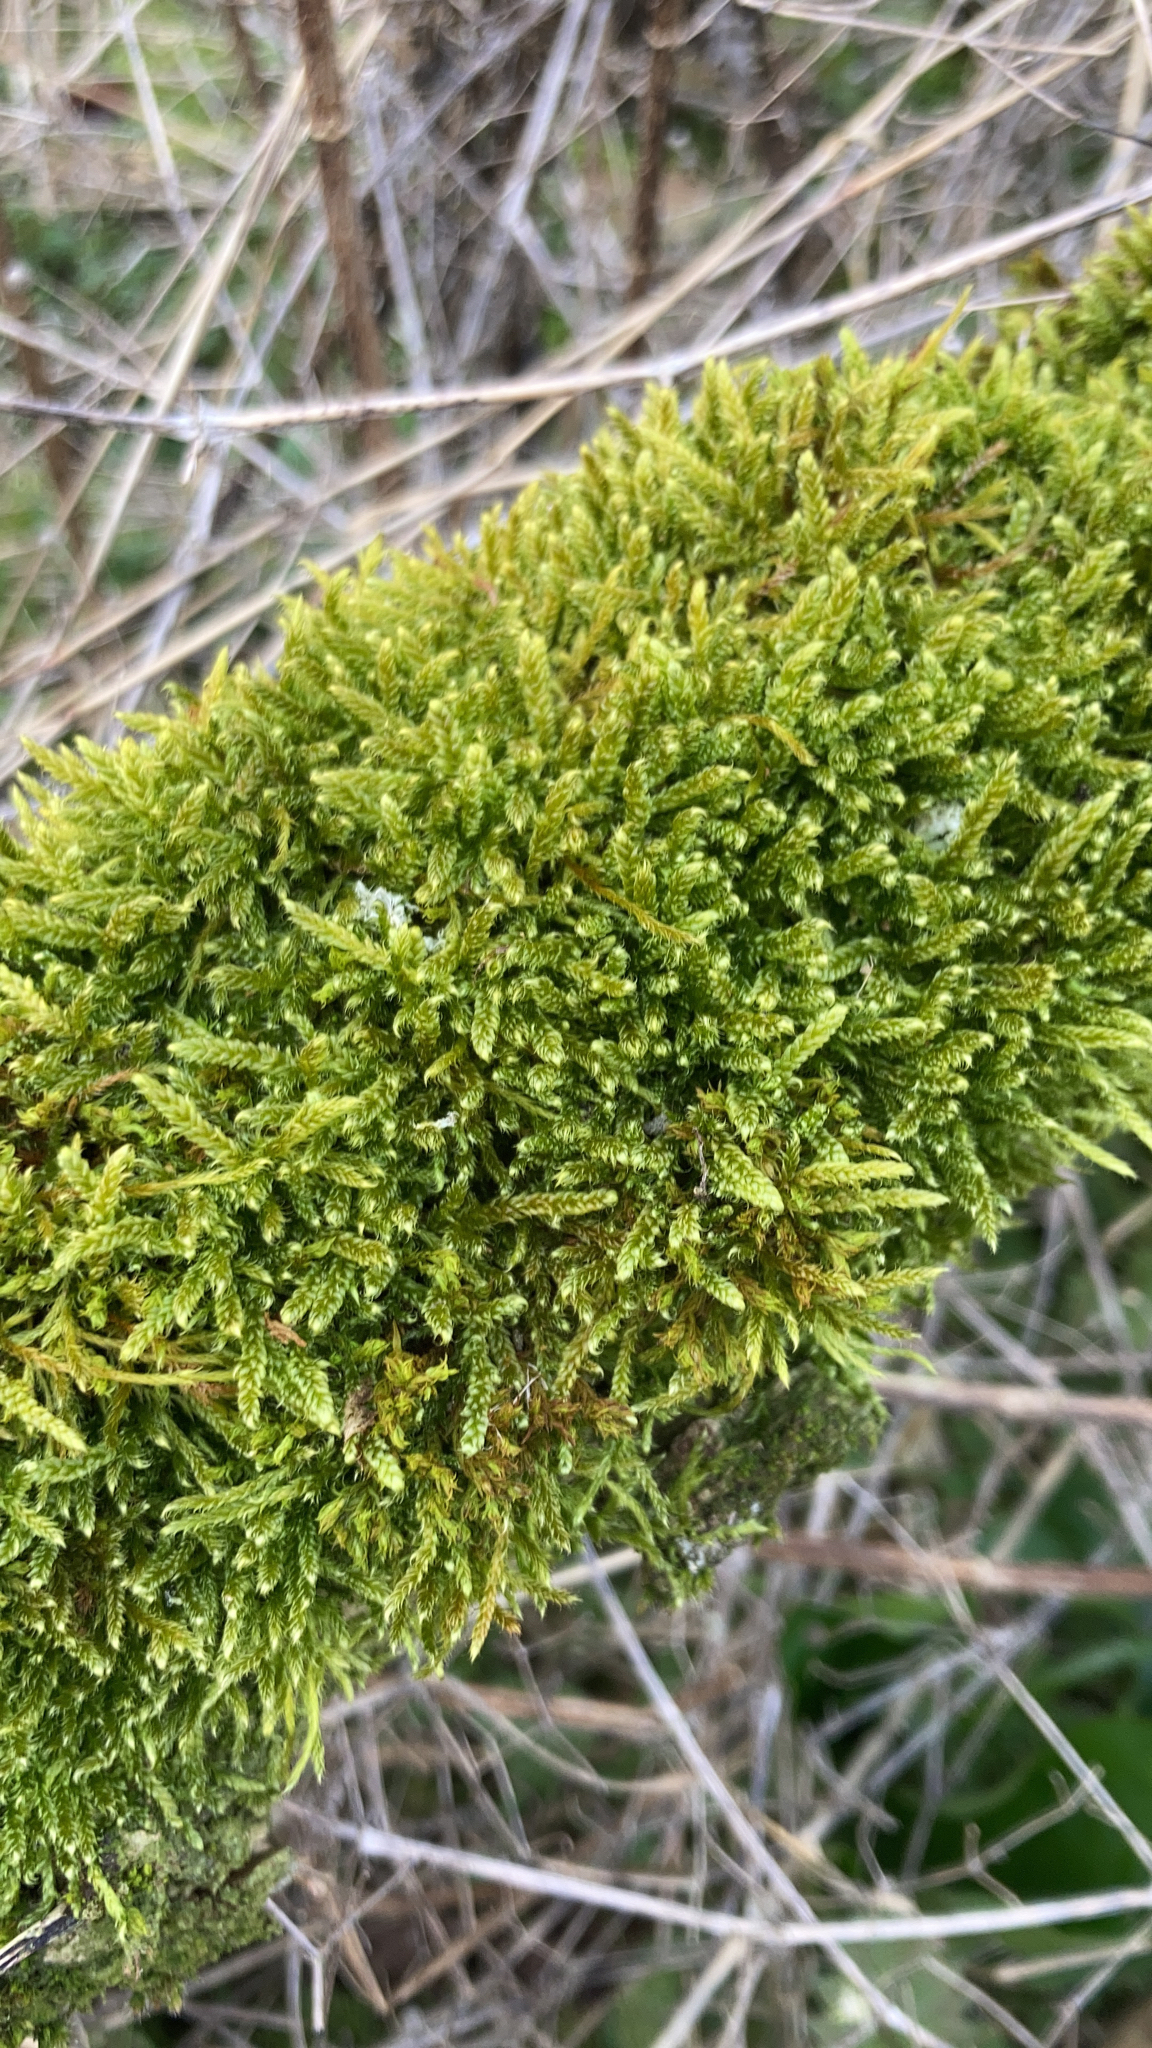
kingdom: Plantae
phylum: Bryophyta
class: Bryopsida
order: Hypnales
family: Hypnaceae
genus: Hypnum
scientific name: Hypnum cupressiforme
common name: Cypress-leaved plait-moss
